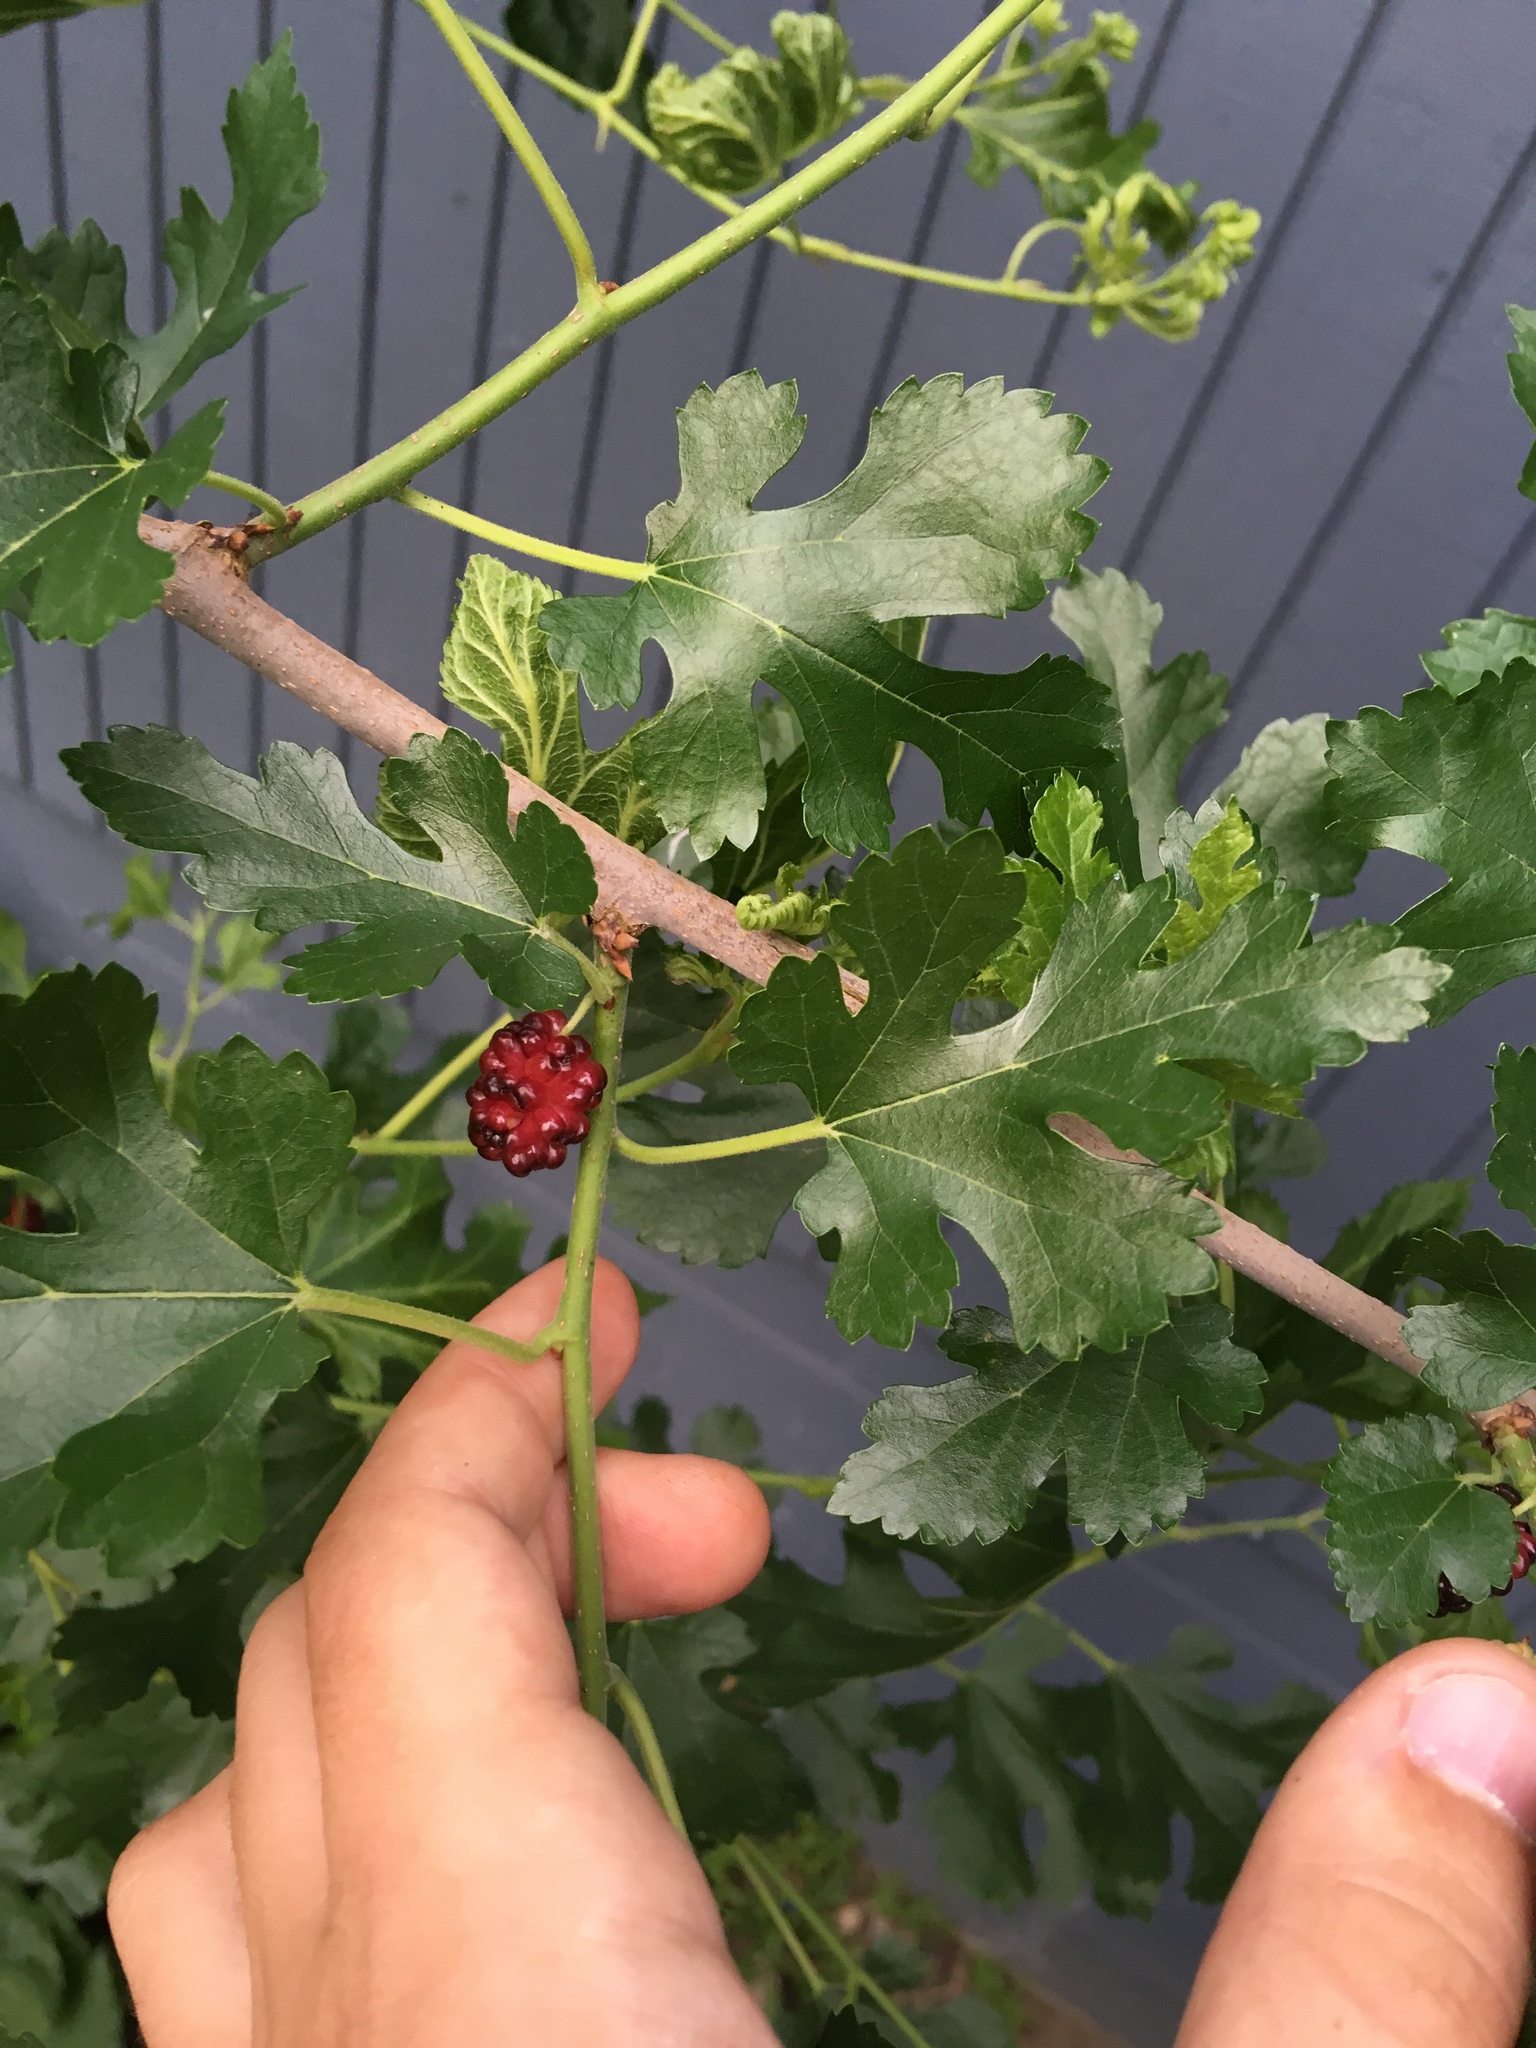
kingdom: Plantae
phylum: Tracheophyta
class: Magnoliopsida
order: Rosales
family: Moraceae
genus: Morus
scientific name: Morus alba
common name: White mulberry
